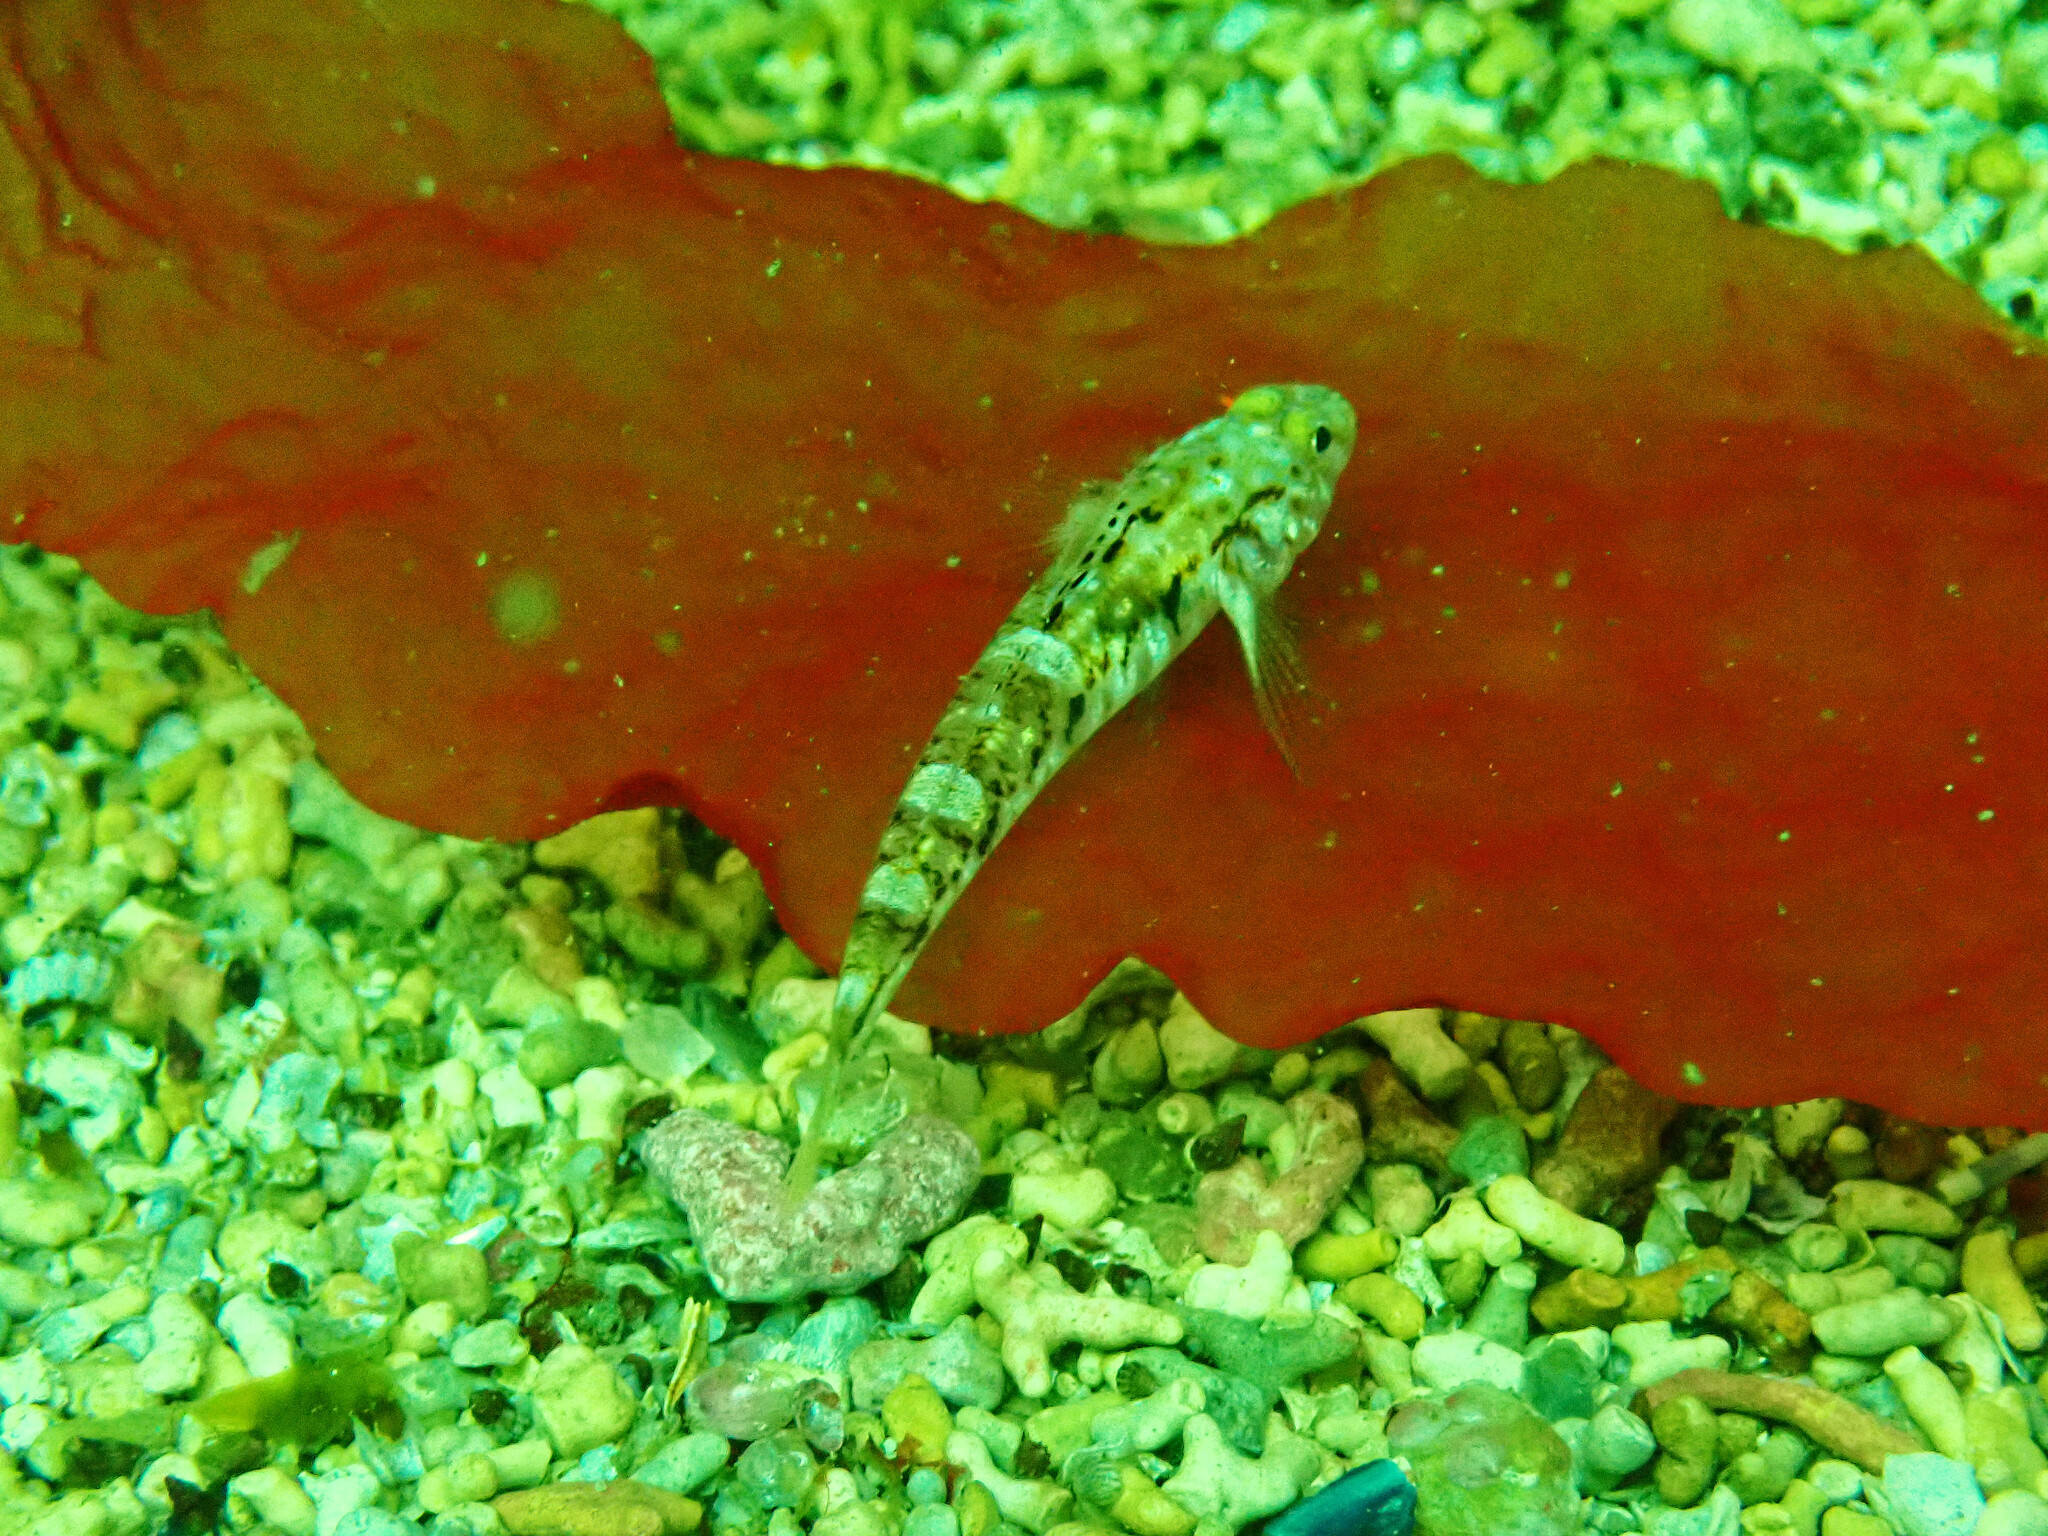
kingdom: Animalia
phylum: Chordata
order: Perciformes
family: Gobiidae
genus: Pomatoschistus
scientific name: Pomatoschistus pictus
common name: Painted goby
